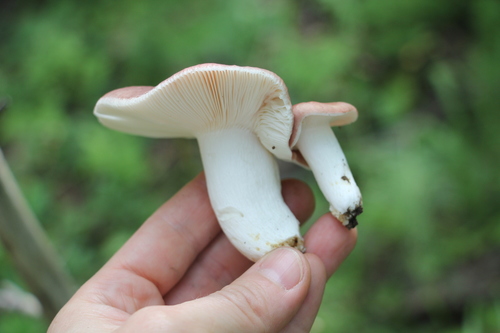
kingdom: Fungi
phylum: Basidiomycota
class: Agaricomycetes
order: Russulales
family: Russulaceae
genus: Russula
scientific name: Russula vesca
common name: Bare-toothed russula
